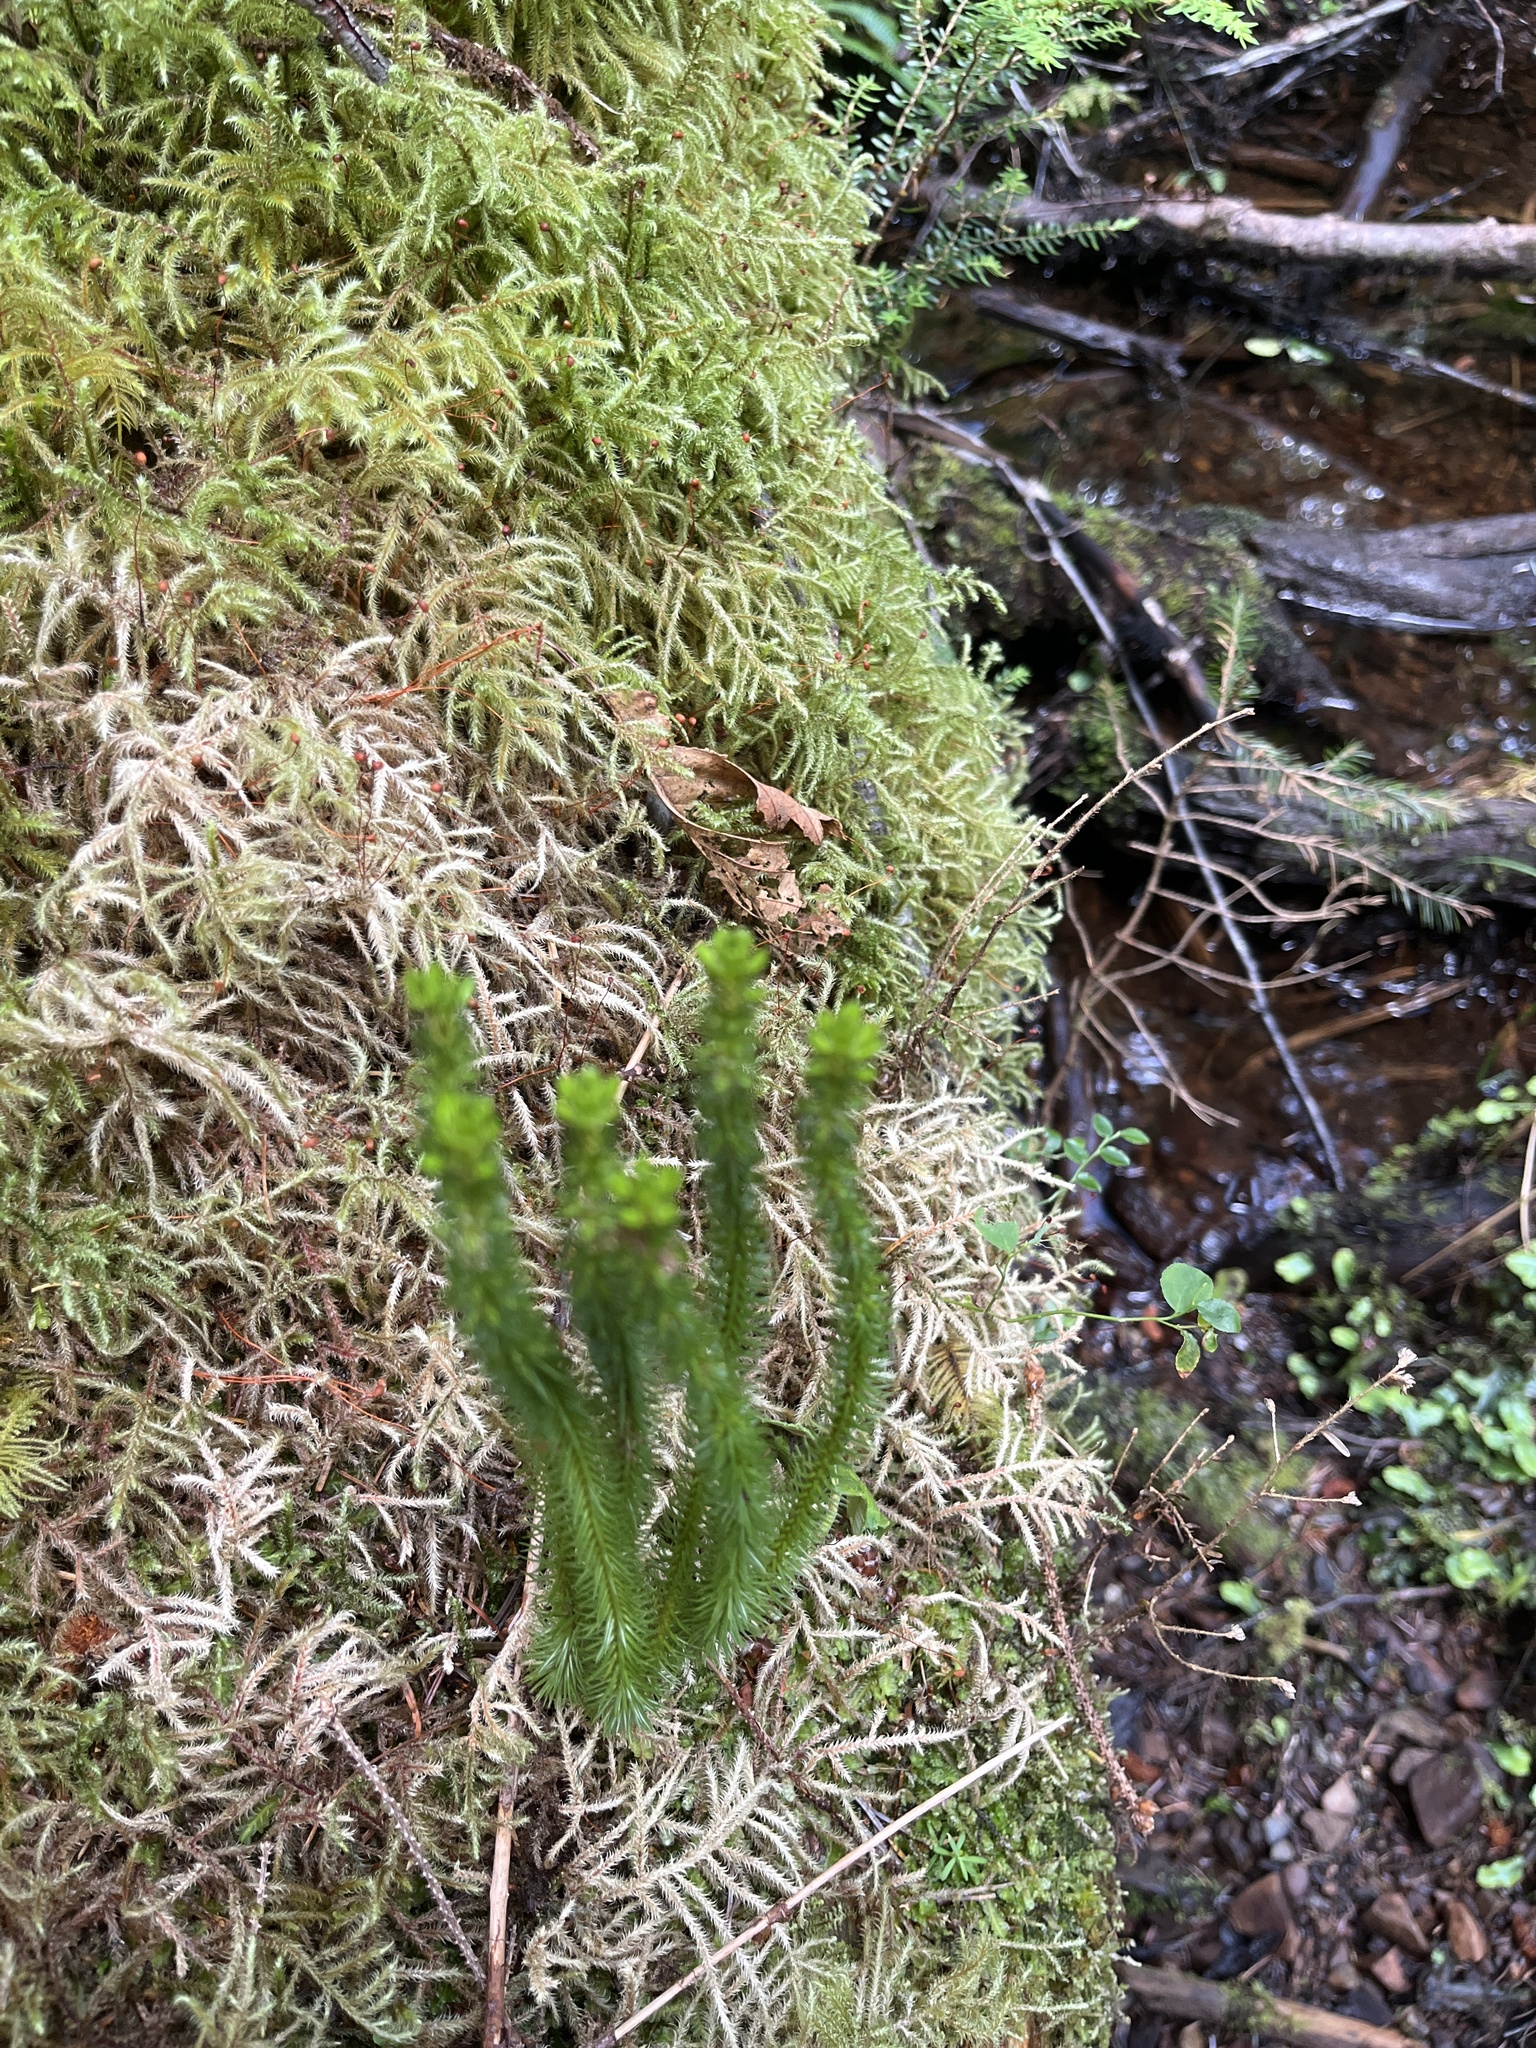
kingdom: Plantae
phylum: Tracheophyta
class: Lycopodiopsida
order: Lycopodiales
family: Lycopodiaceae
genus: Huperzia
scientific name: Huperzia miyoshiana
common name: Chinese clubmoss
